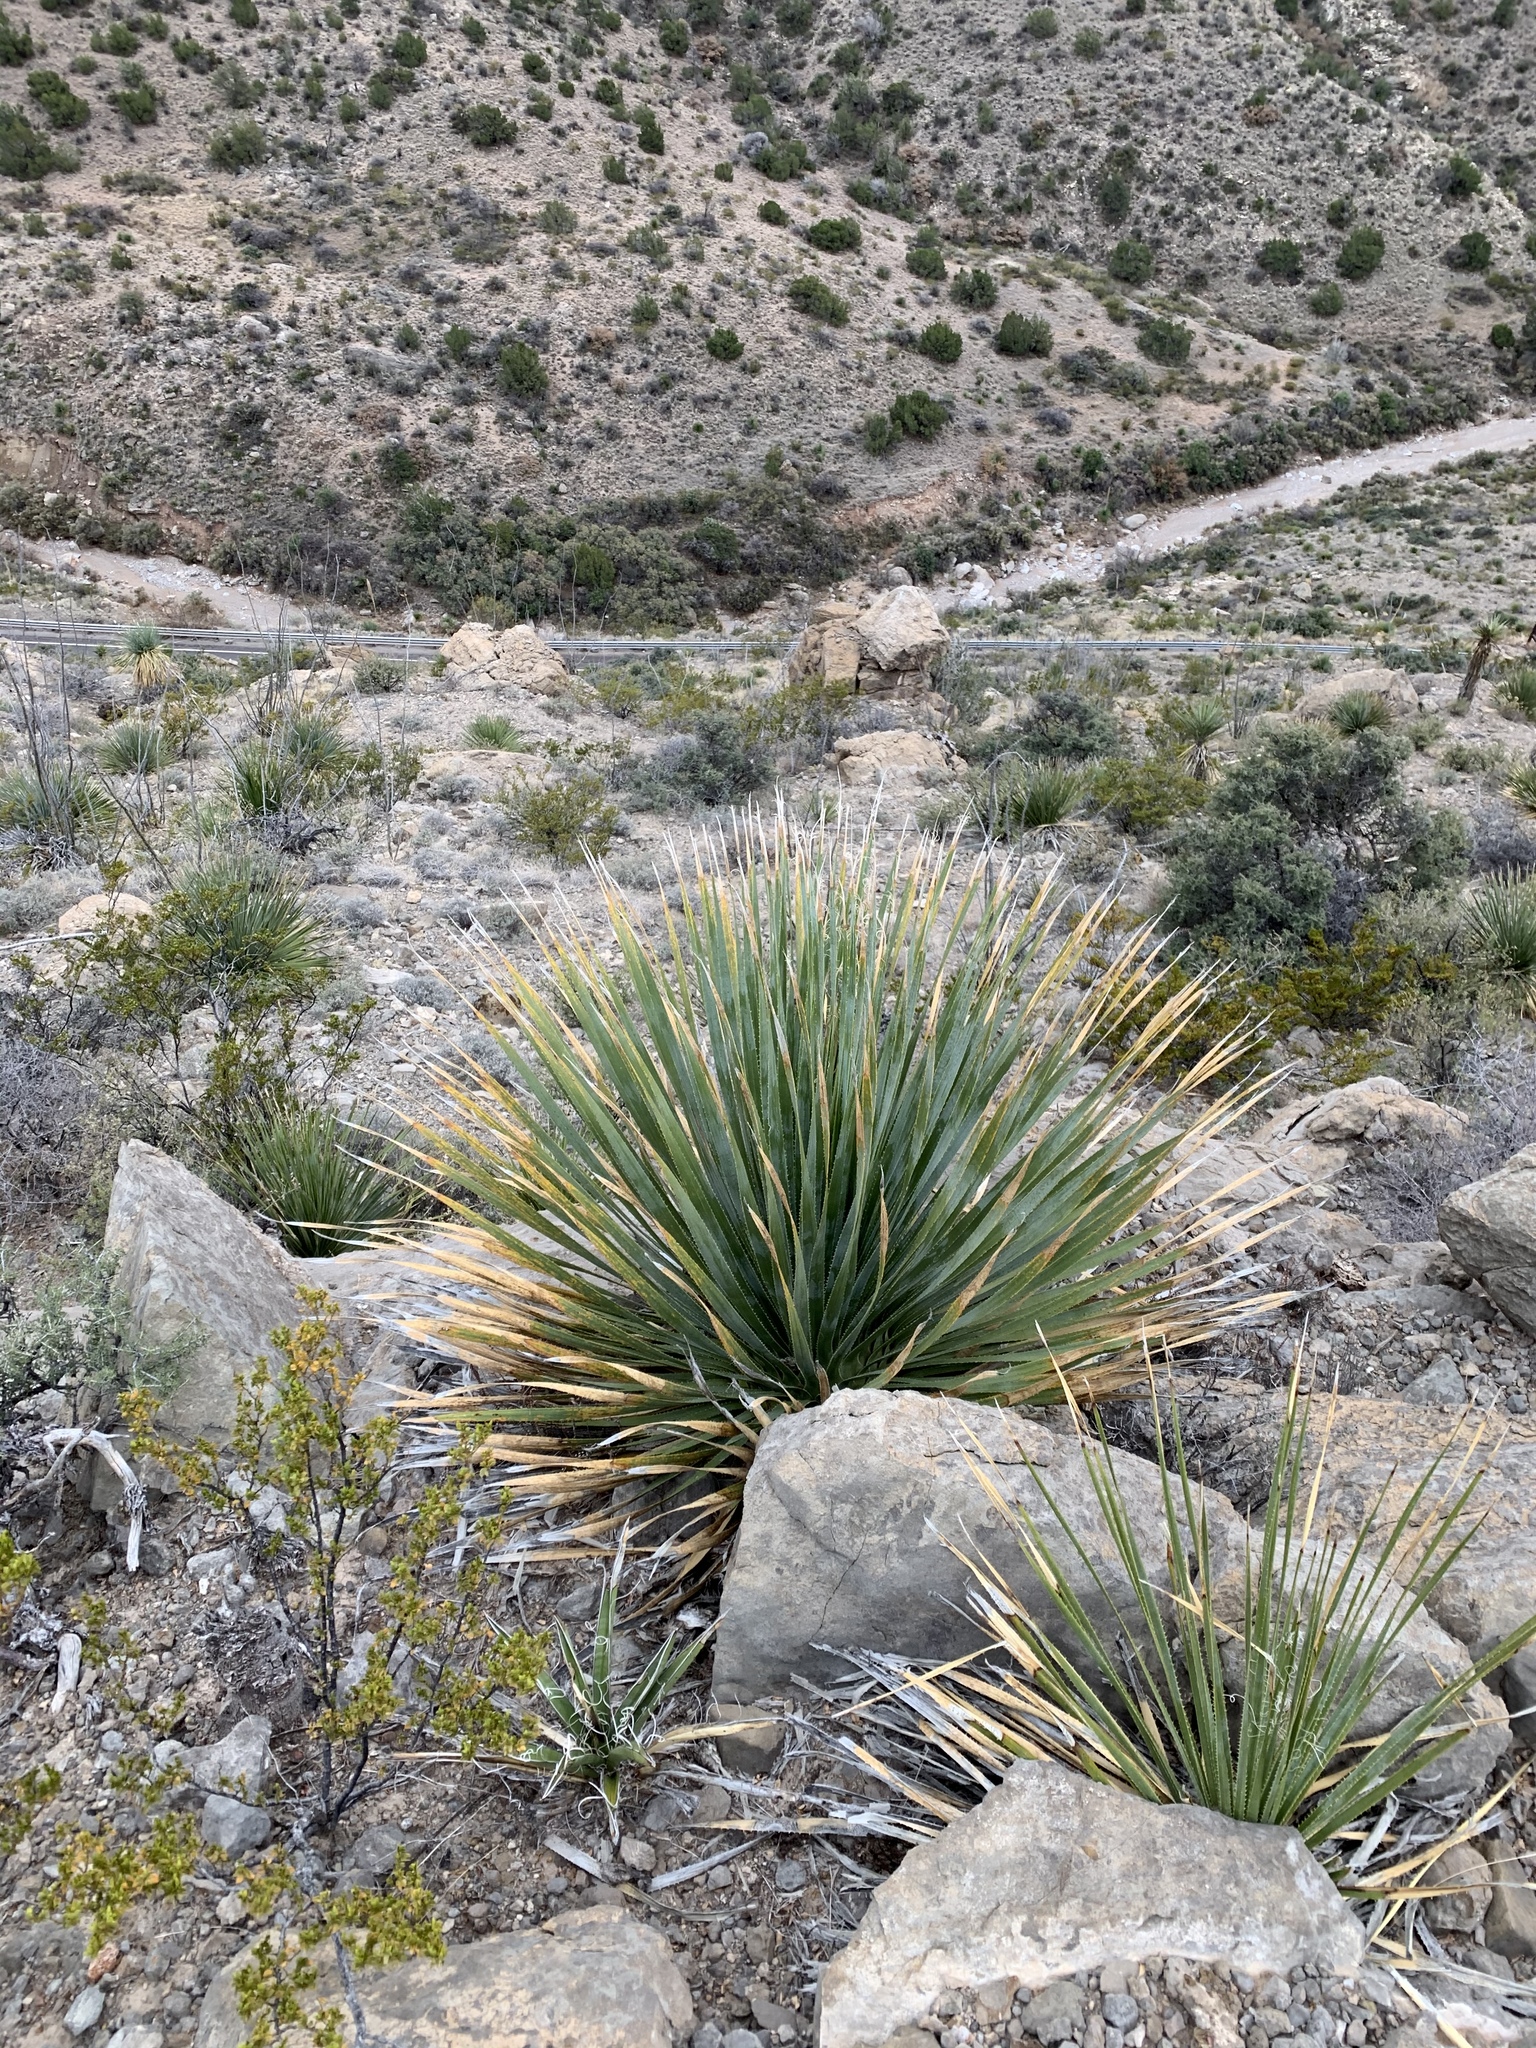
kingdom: Plantae
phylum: Tracheophyta
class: Liliopsida
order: Asparagales
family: Asparagaceae
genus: Dasylirion
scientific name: Dasylirion wheeleri
